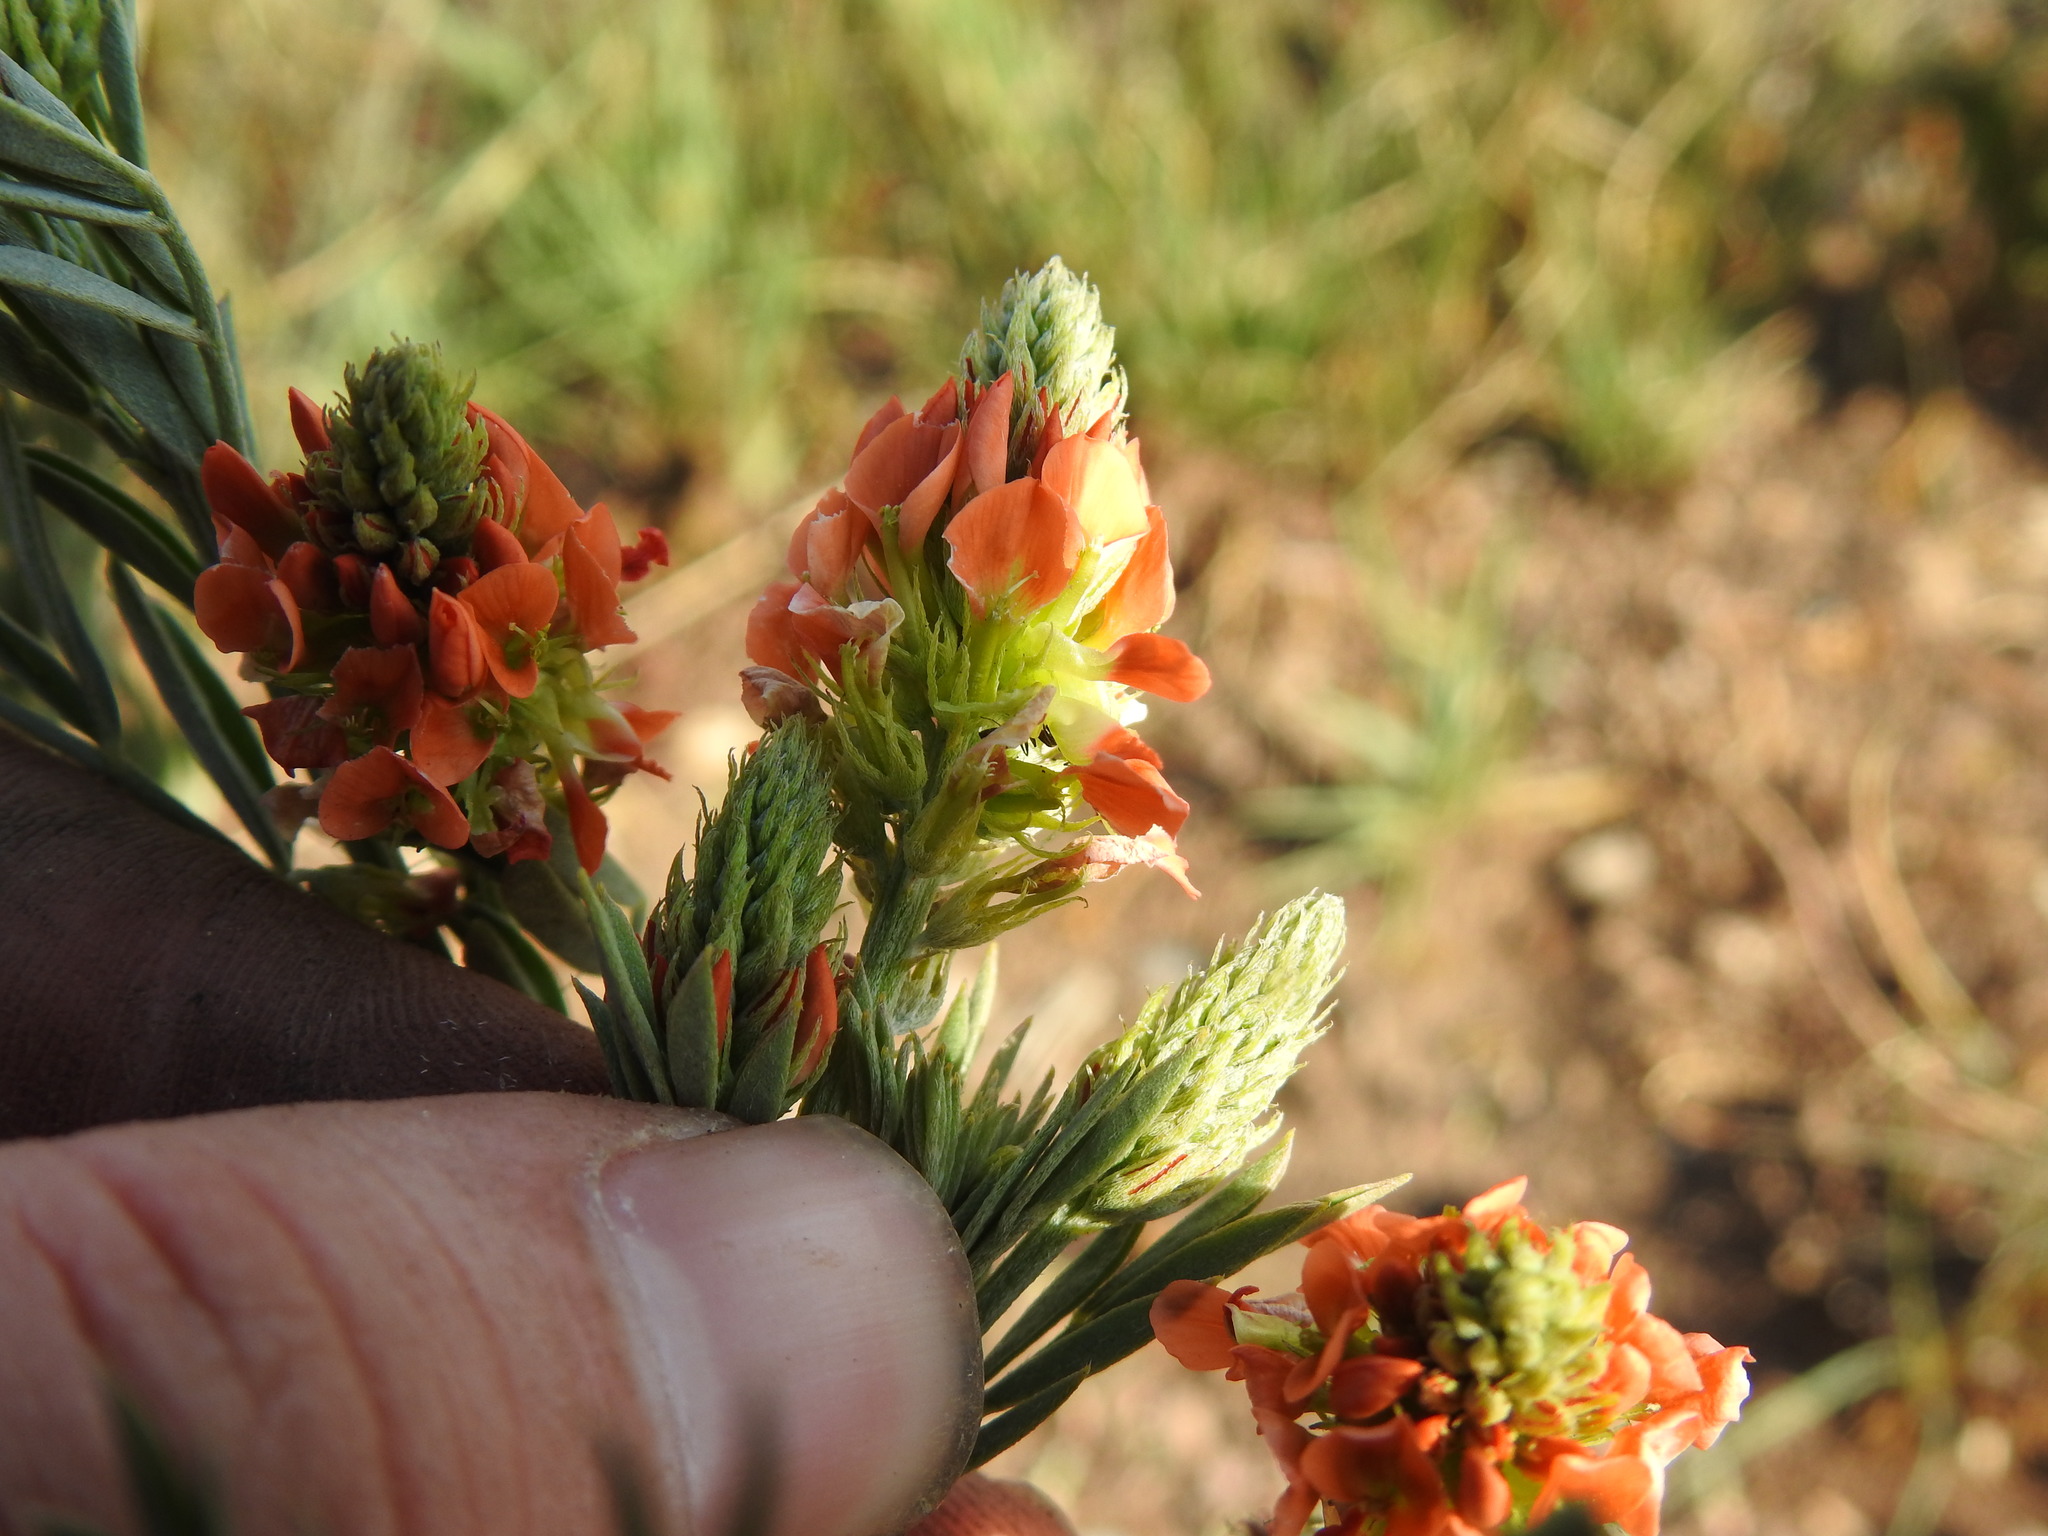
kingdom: Plantae
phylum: Tracheophyta
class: Magnoliopsida
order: Fabales
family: Fabaceae
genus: Indigastrum
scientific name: Indigastrum burkeanum
